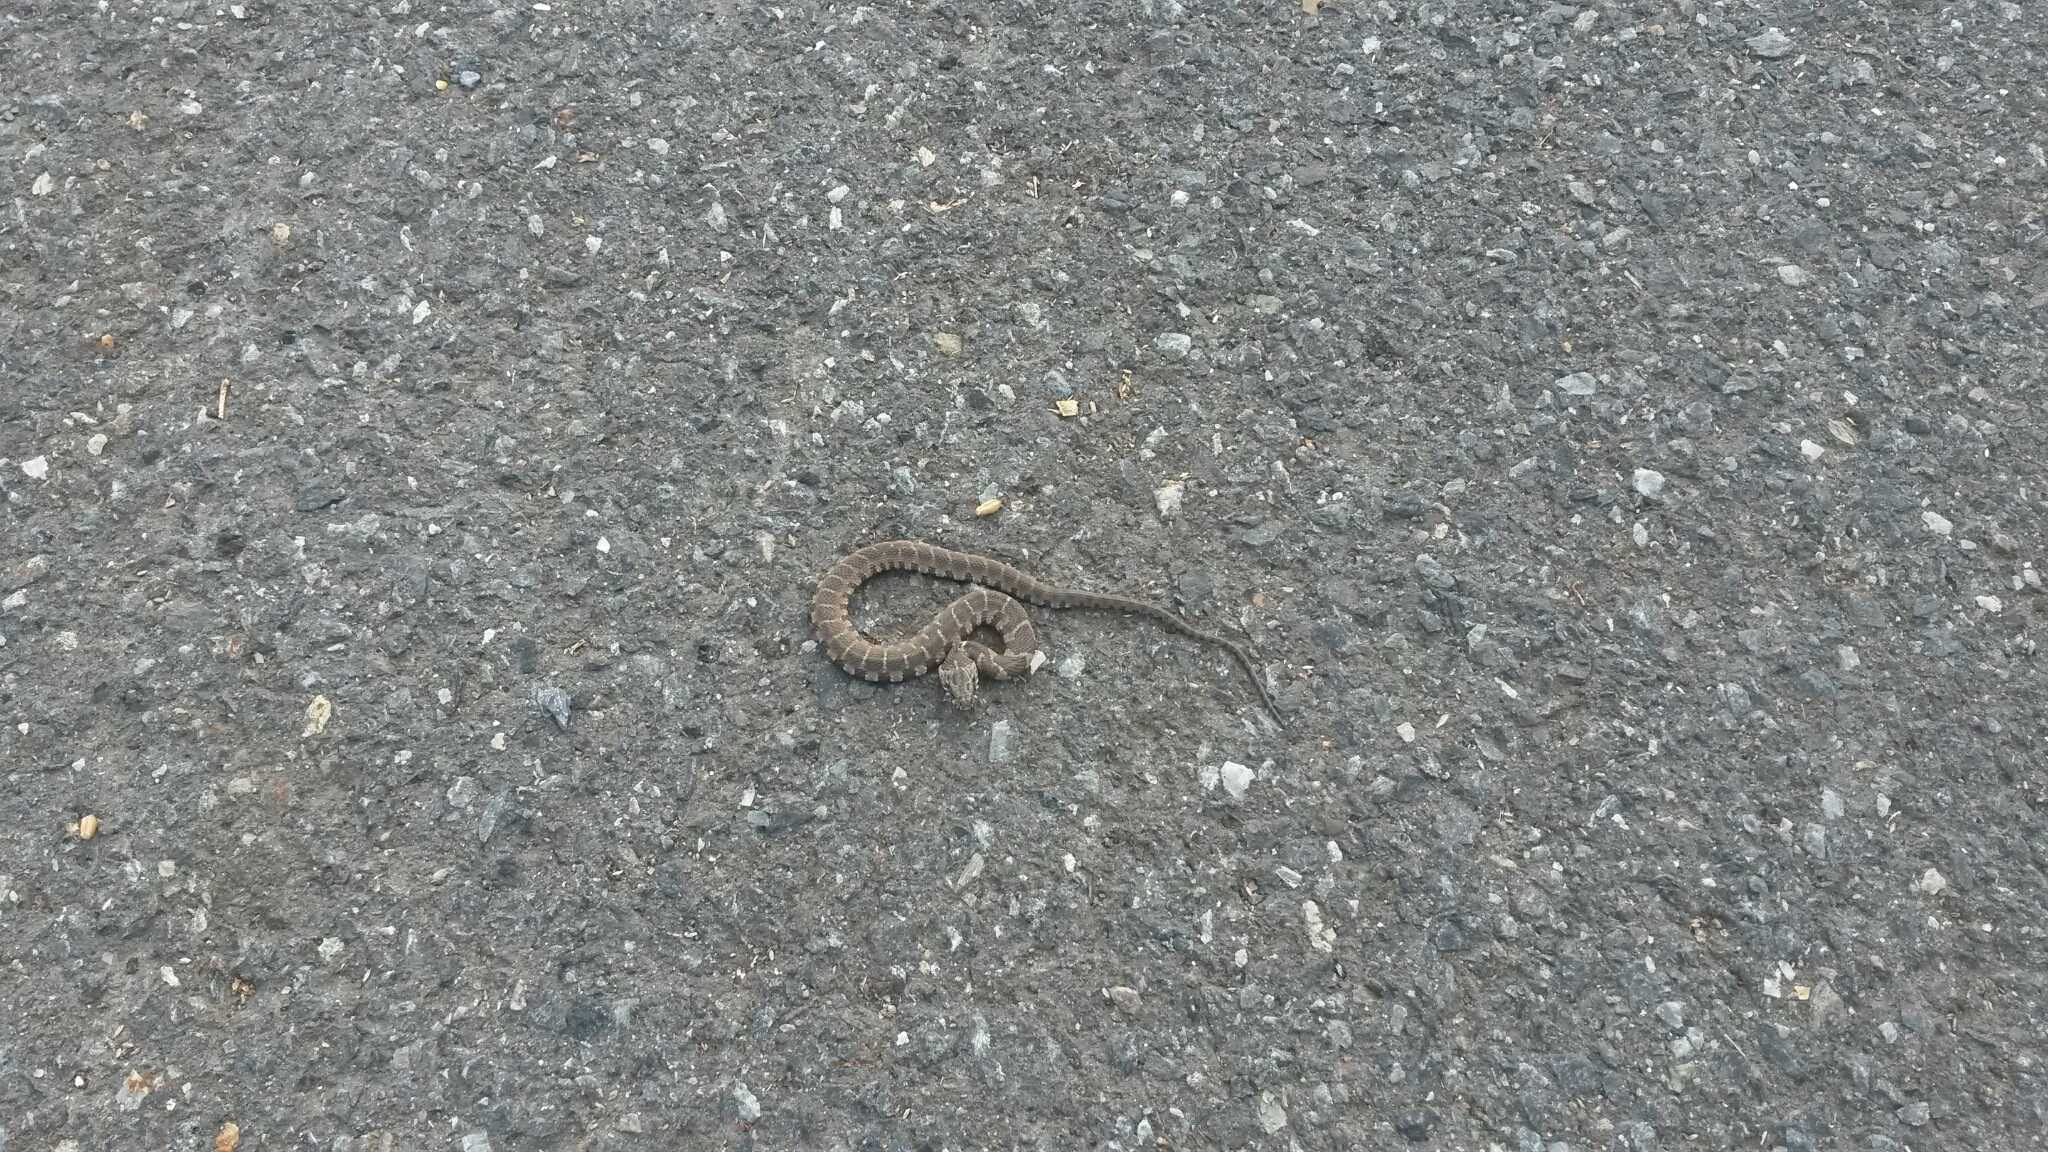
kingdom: Animalia
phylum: Chordata
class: Squamata
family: Colubridae
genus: Nerodia
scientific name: Nerodia sipedon
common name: Northern water snake
